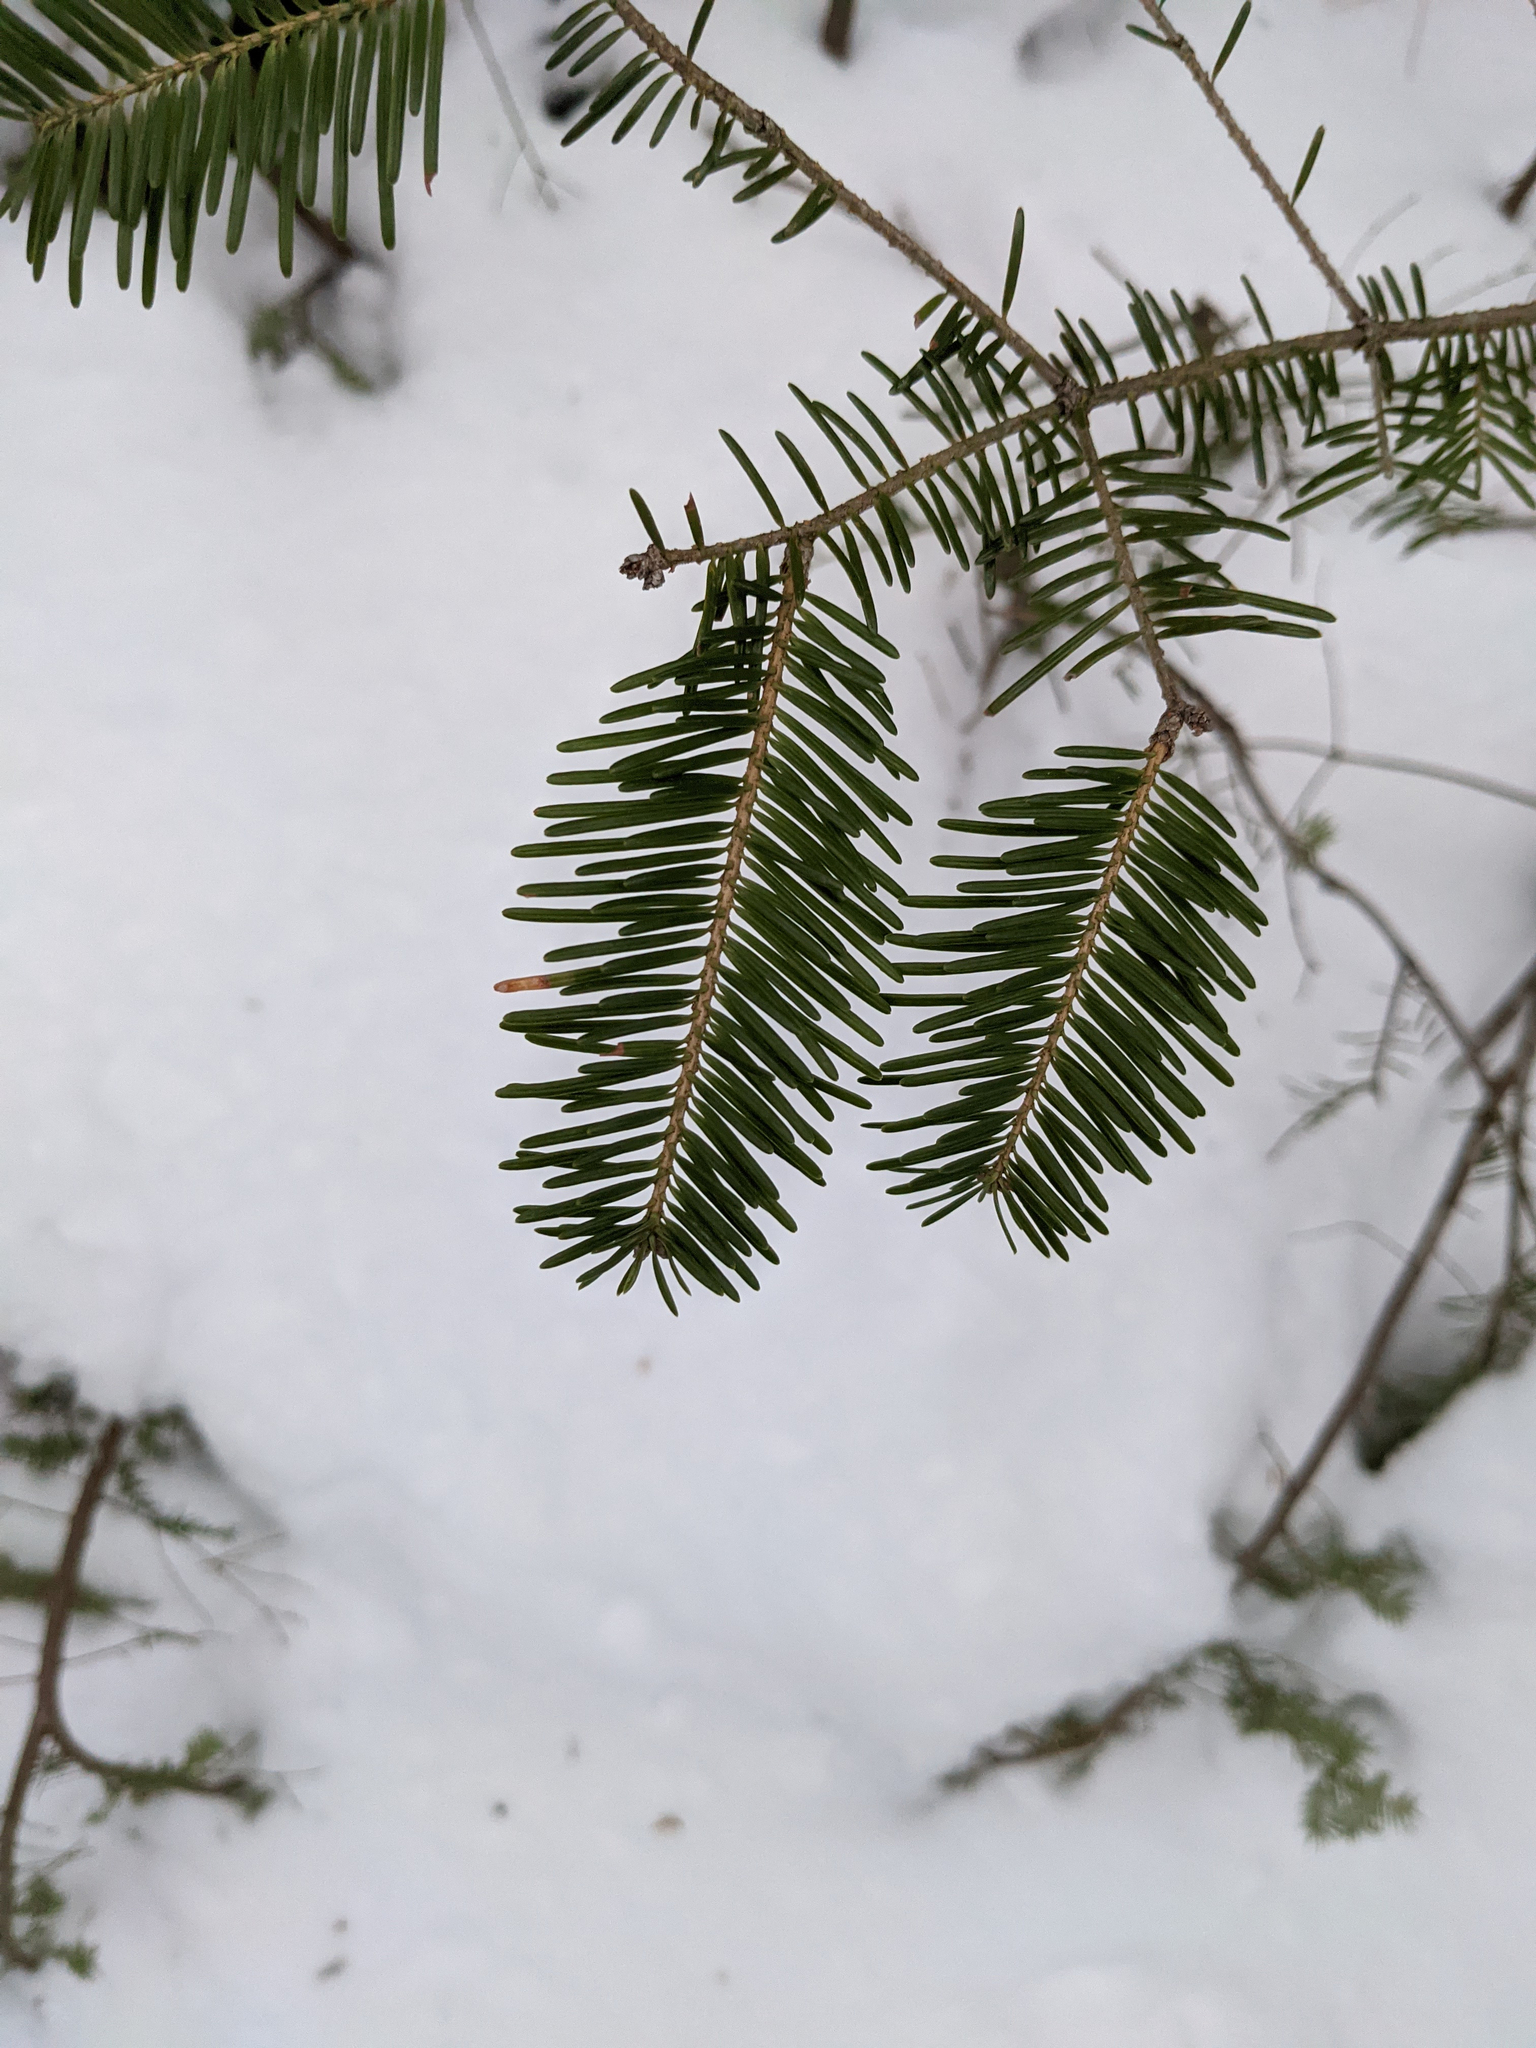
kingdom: Plantae
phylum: Tracheophyta
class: Pinopsida
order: Pinales
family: Pinaceae
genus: Abies
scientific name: Abies balsamea
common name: Balsam fir
